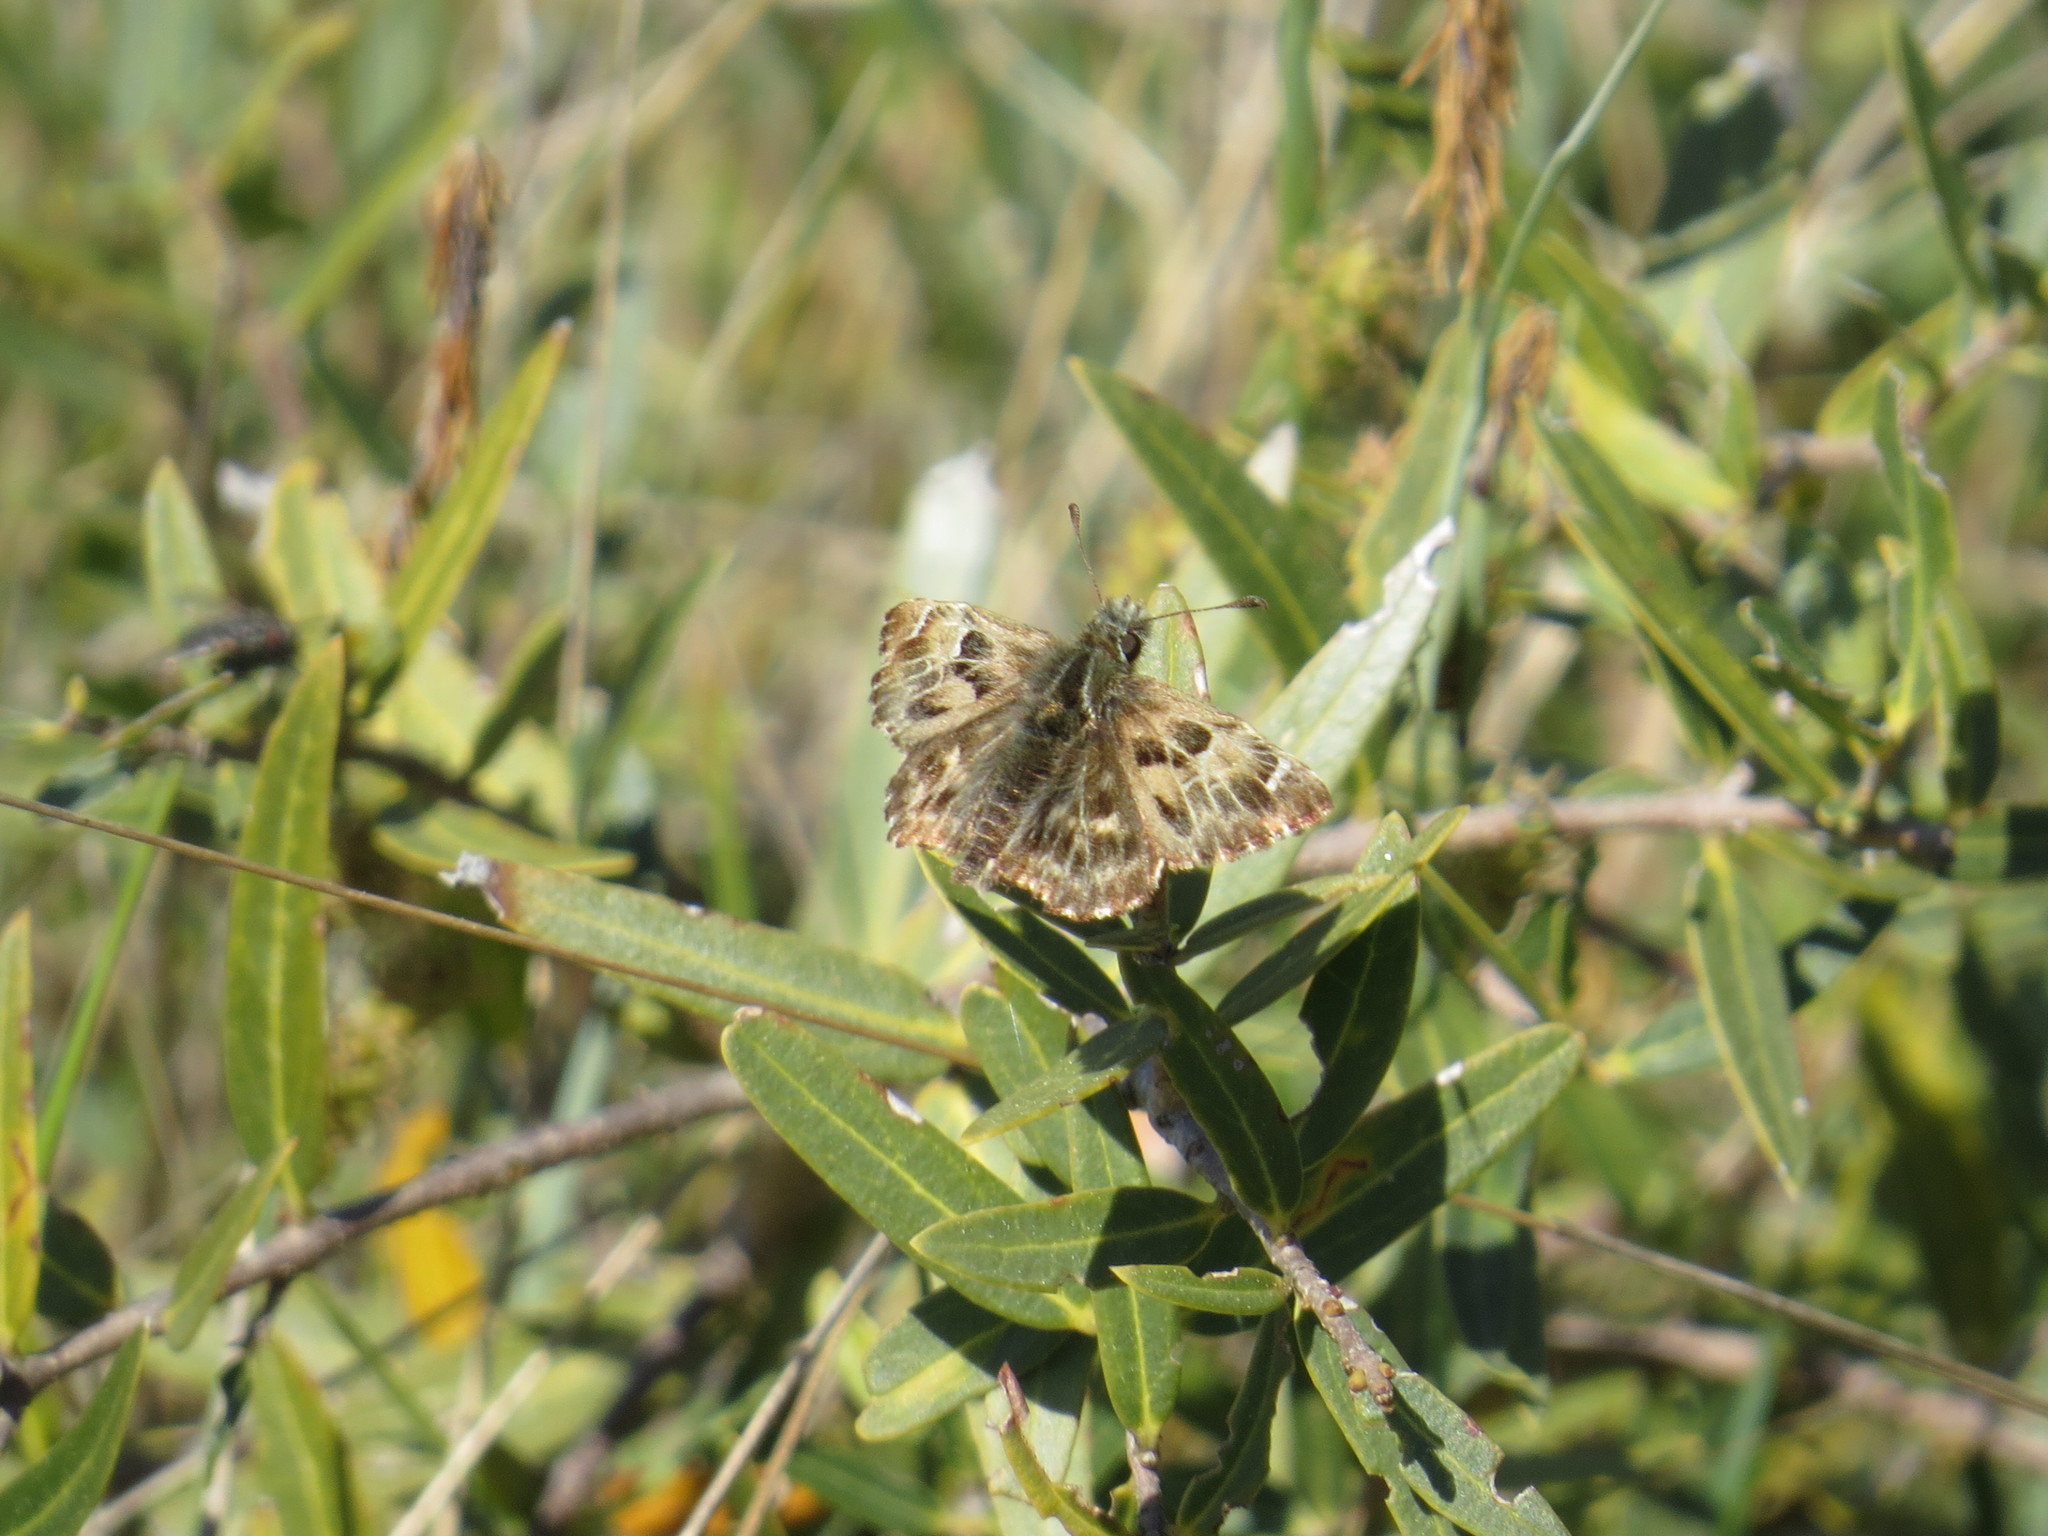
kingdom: Animalia
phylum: Arthropoda
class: Insecta
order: Lepidoptera
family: Hesperiidae
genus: Carcharodus
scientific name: Carcharodus alceae
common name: Mallow skipper
